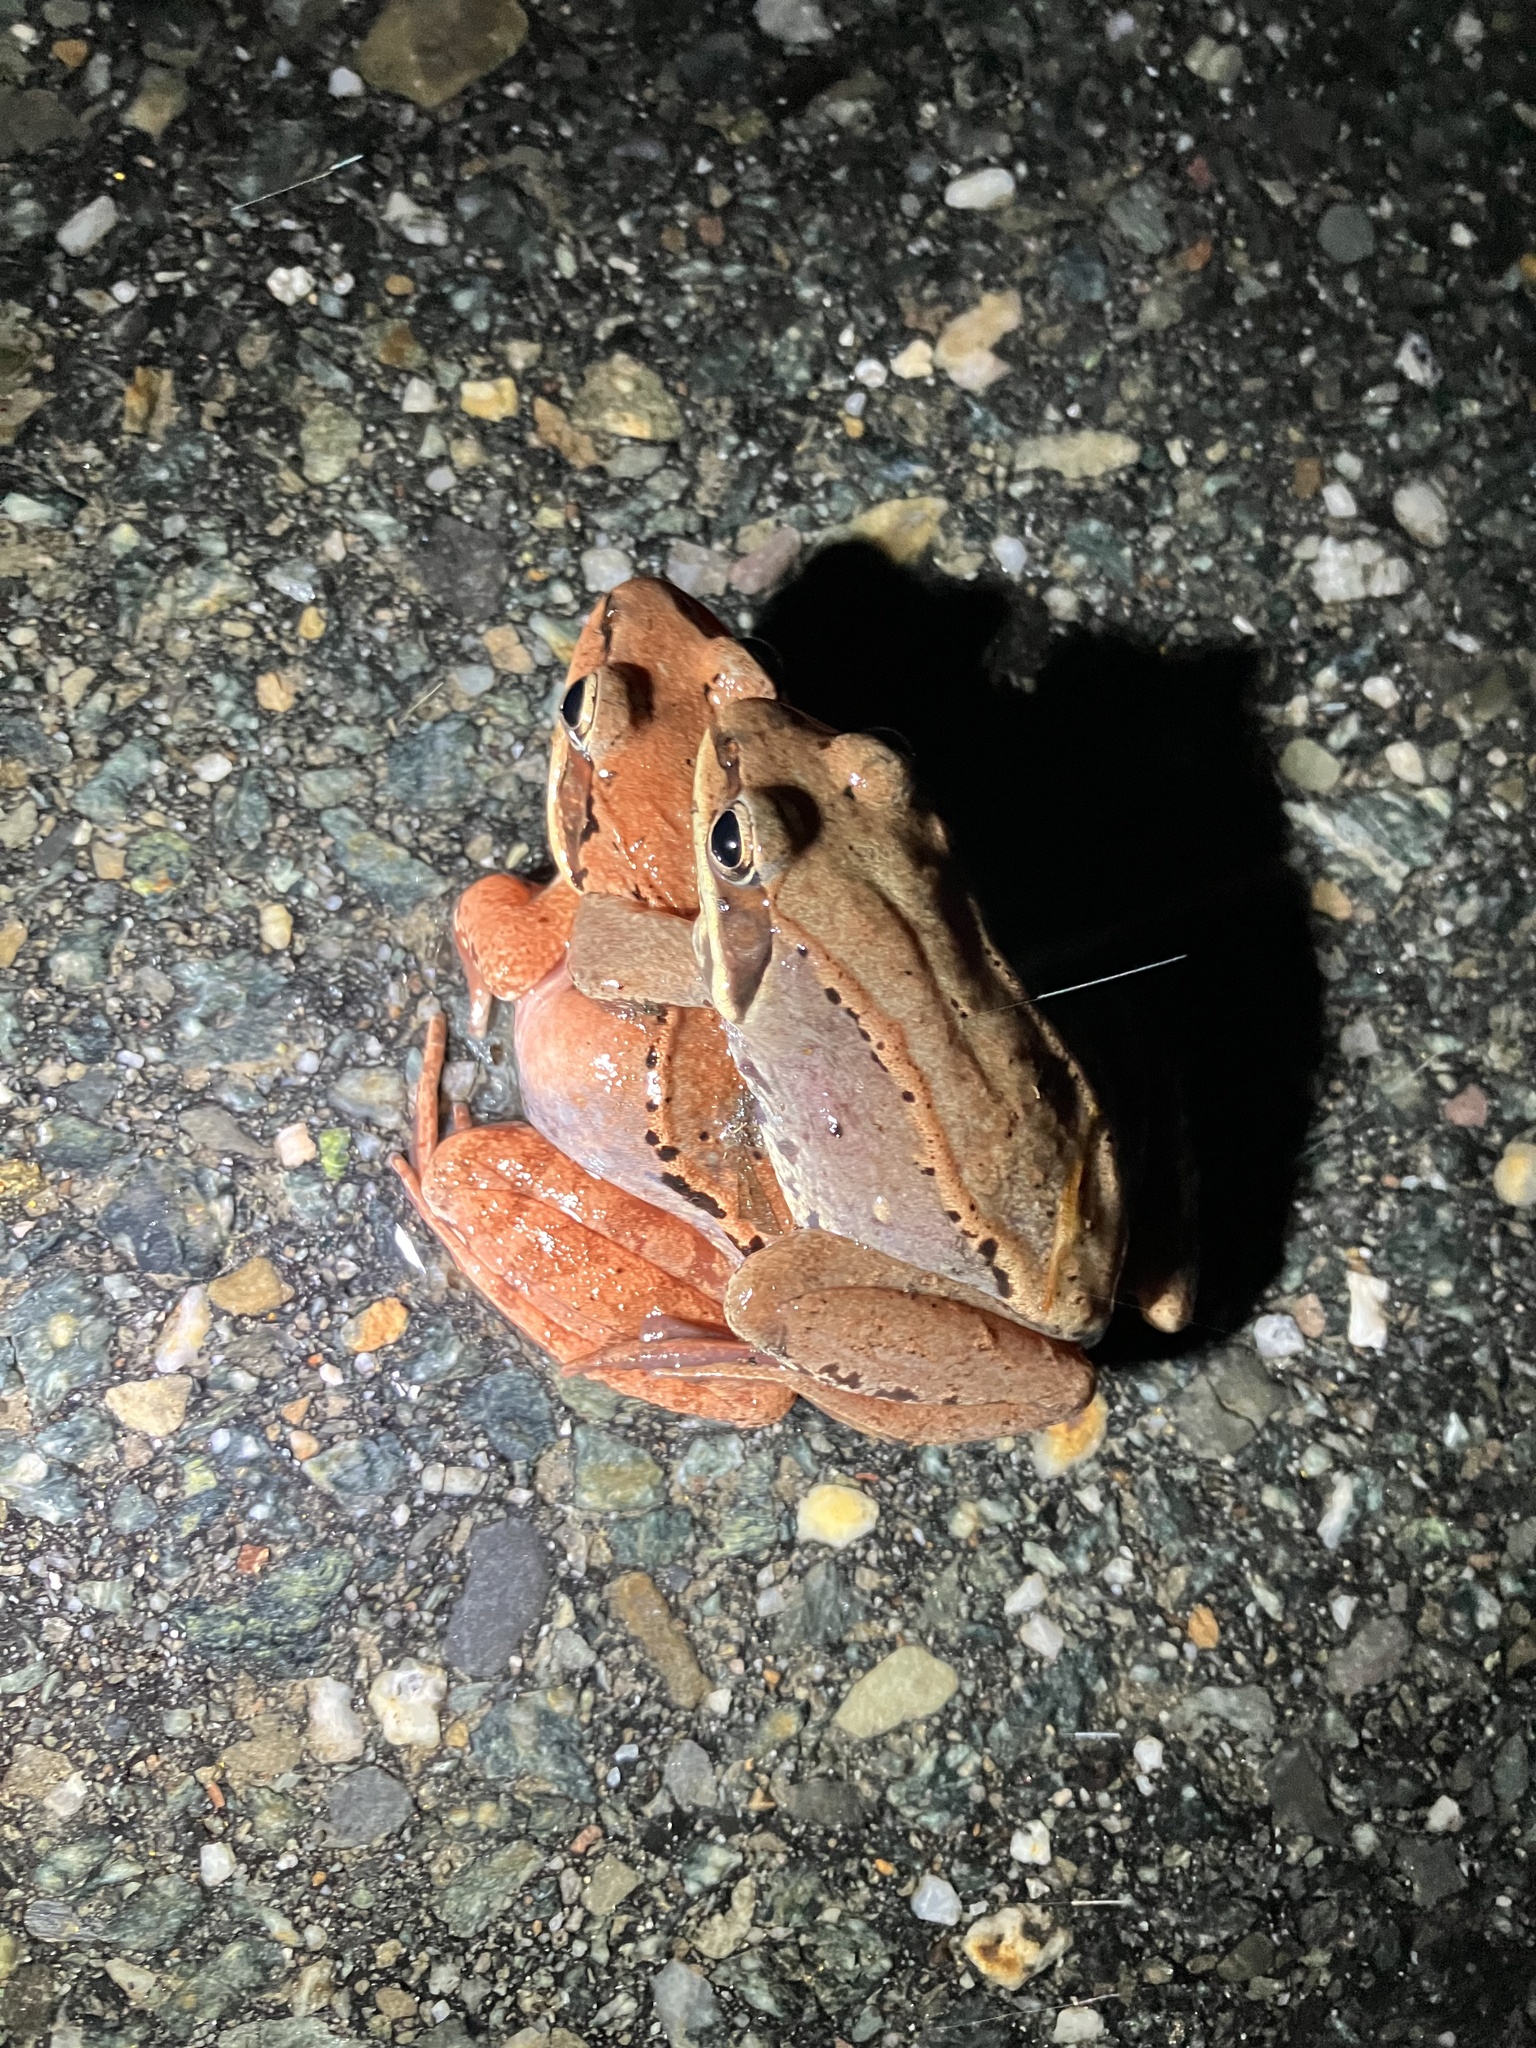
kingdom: Animalia
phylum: Chordata
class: Amphibia
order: Anura
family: Ranidae
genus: Lithobates
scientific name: Lithobates sylvaticus
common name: Wood frog
